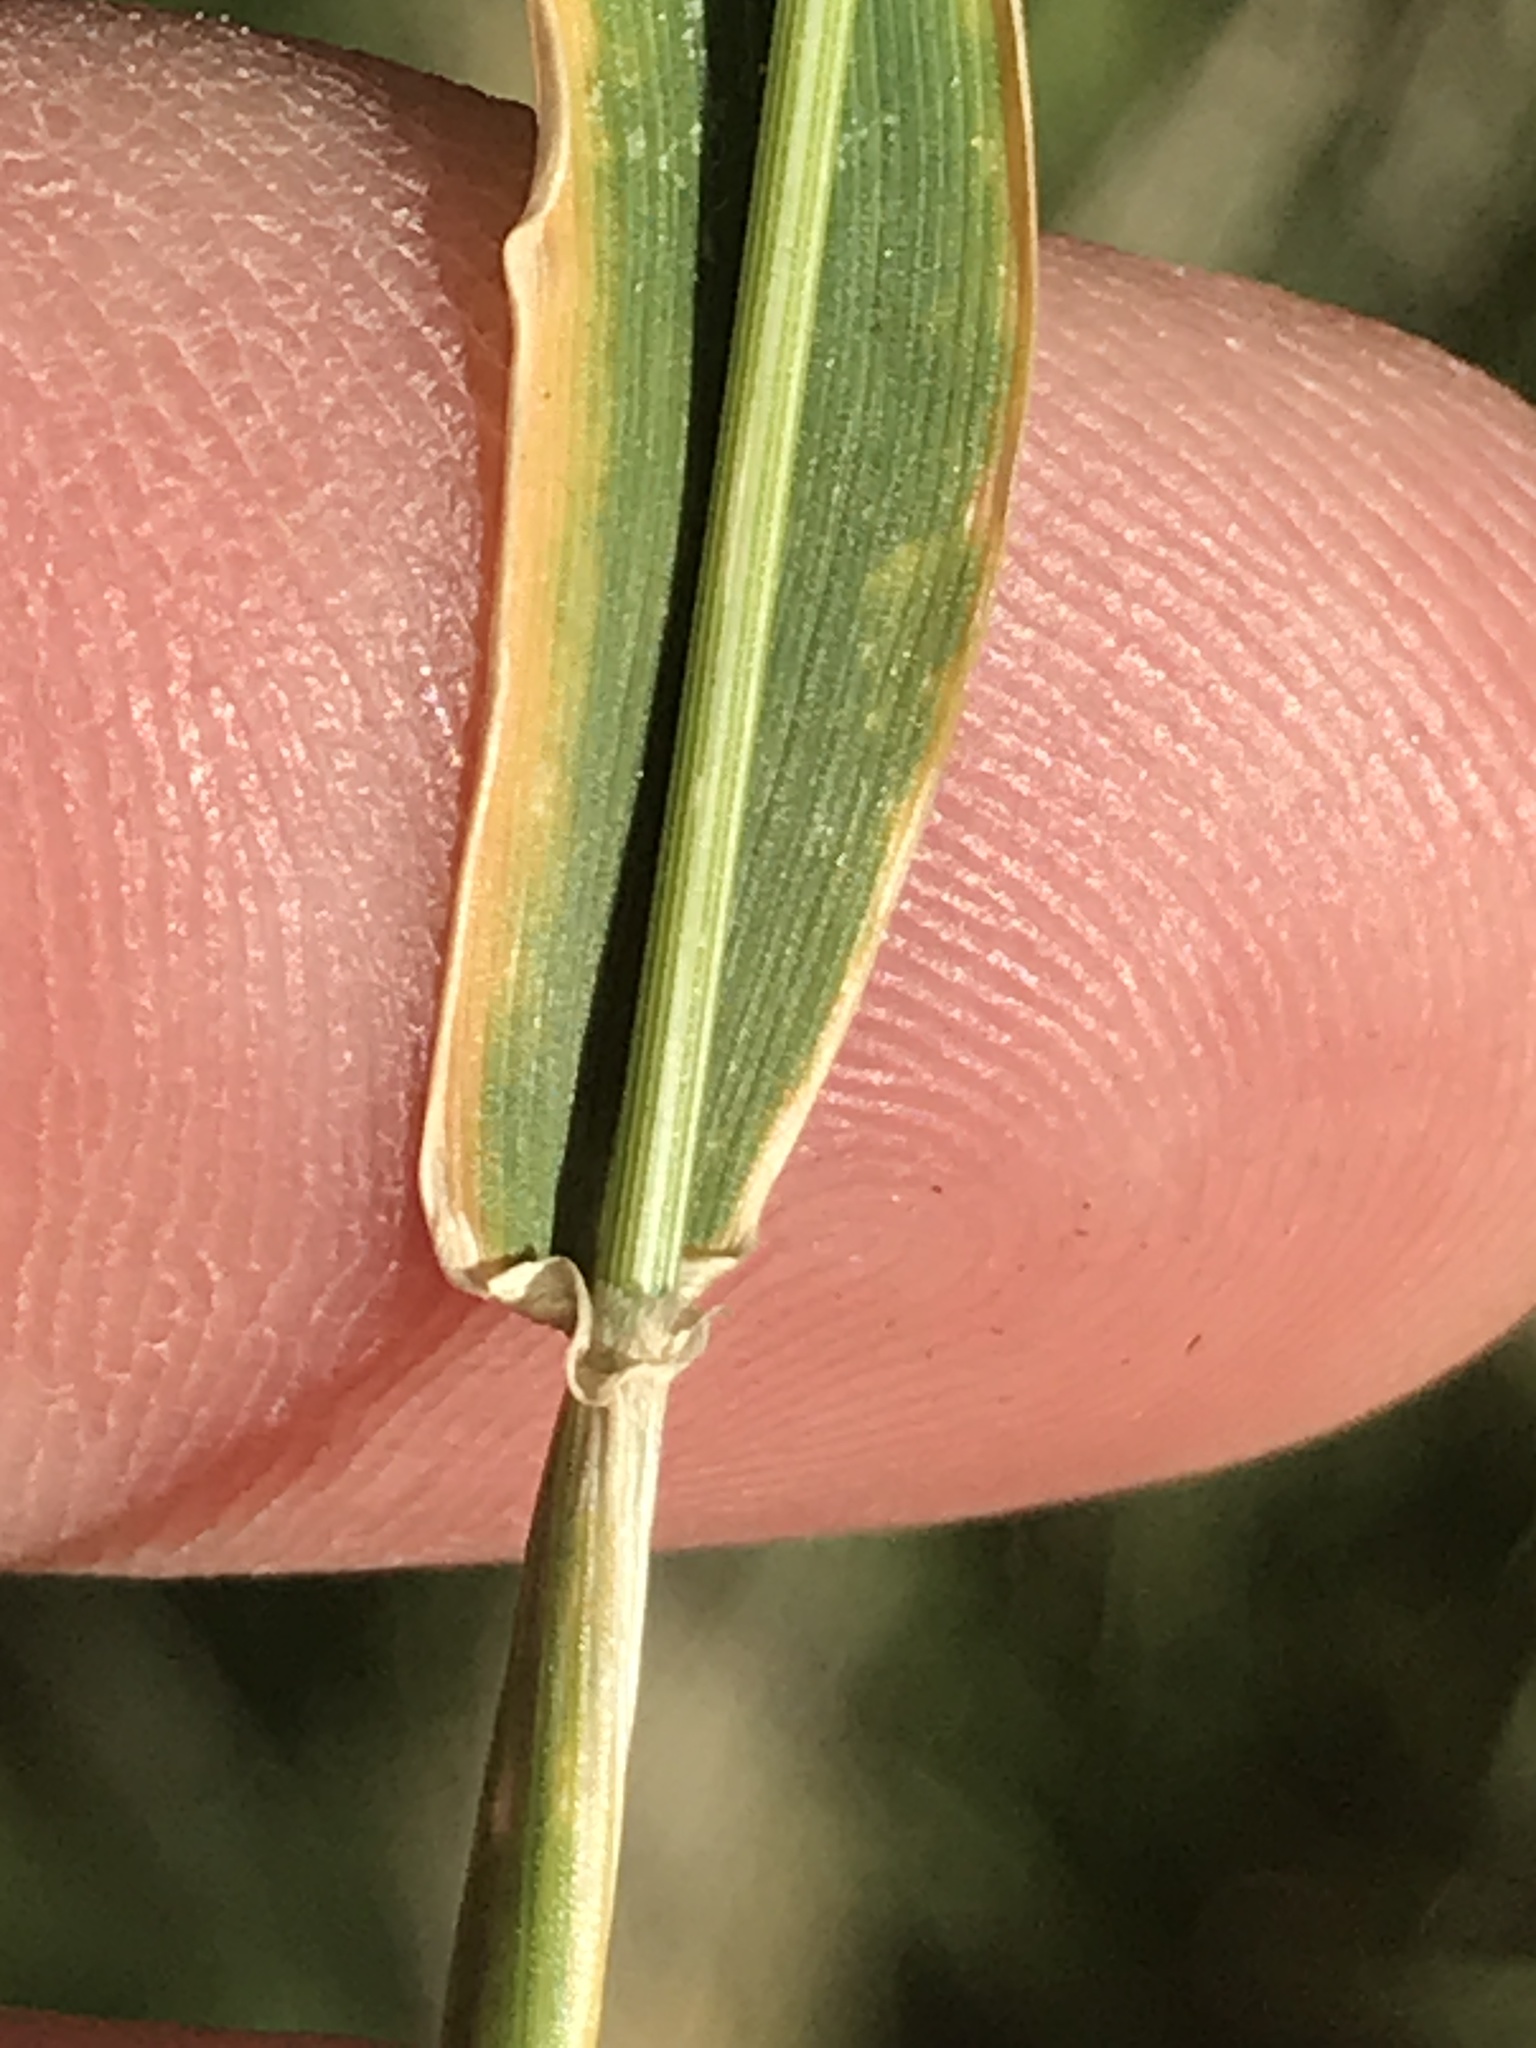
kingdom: Plantae
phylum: Tracheophyta
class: Liliopsida
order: Poales
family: Poaceae
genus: Hordeum
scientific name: Hordeum murinum
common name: Wall barley
